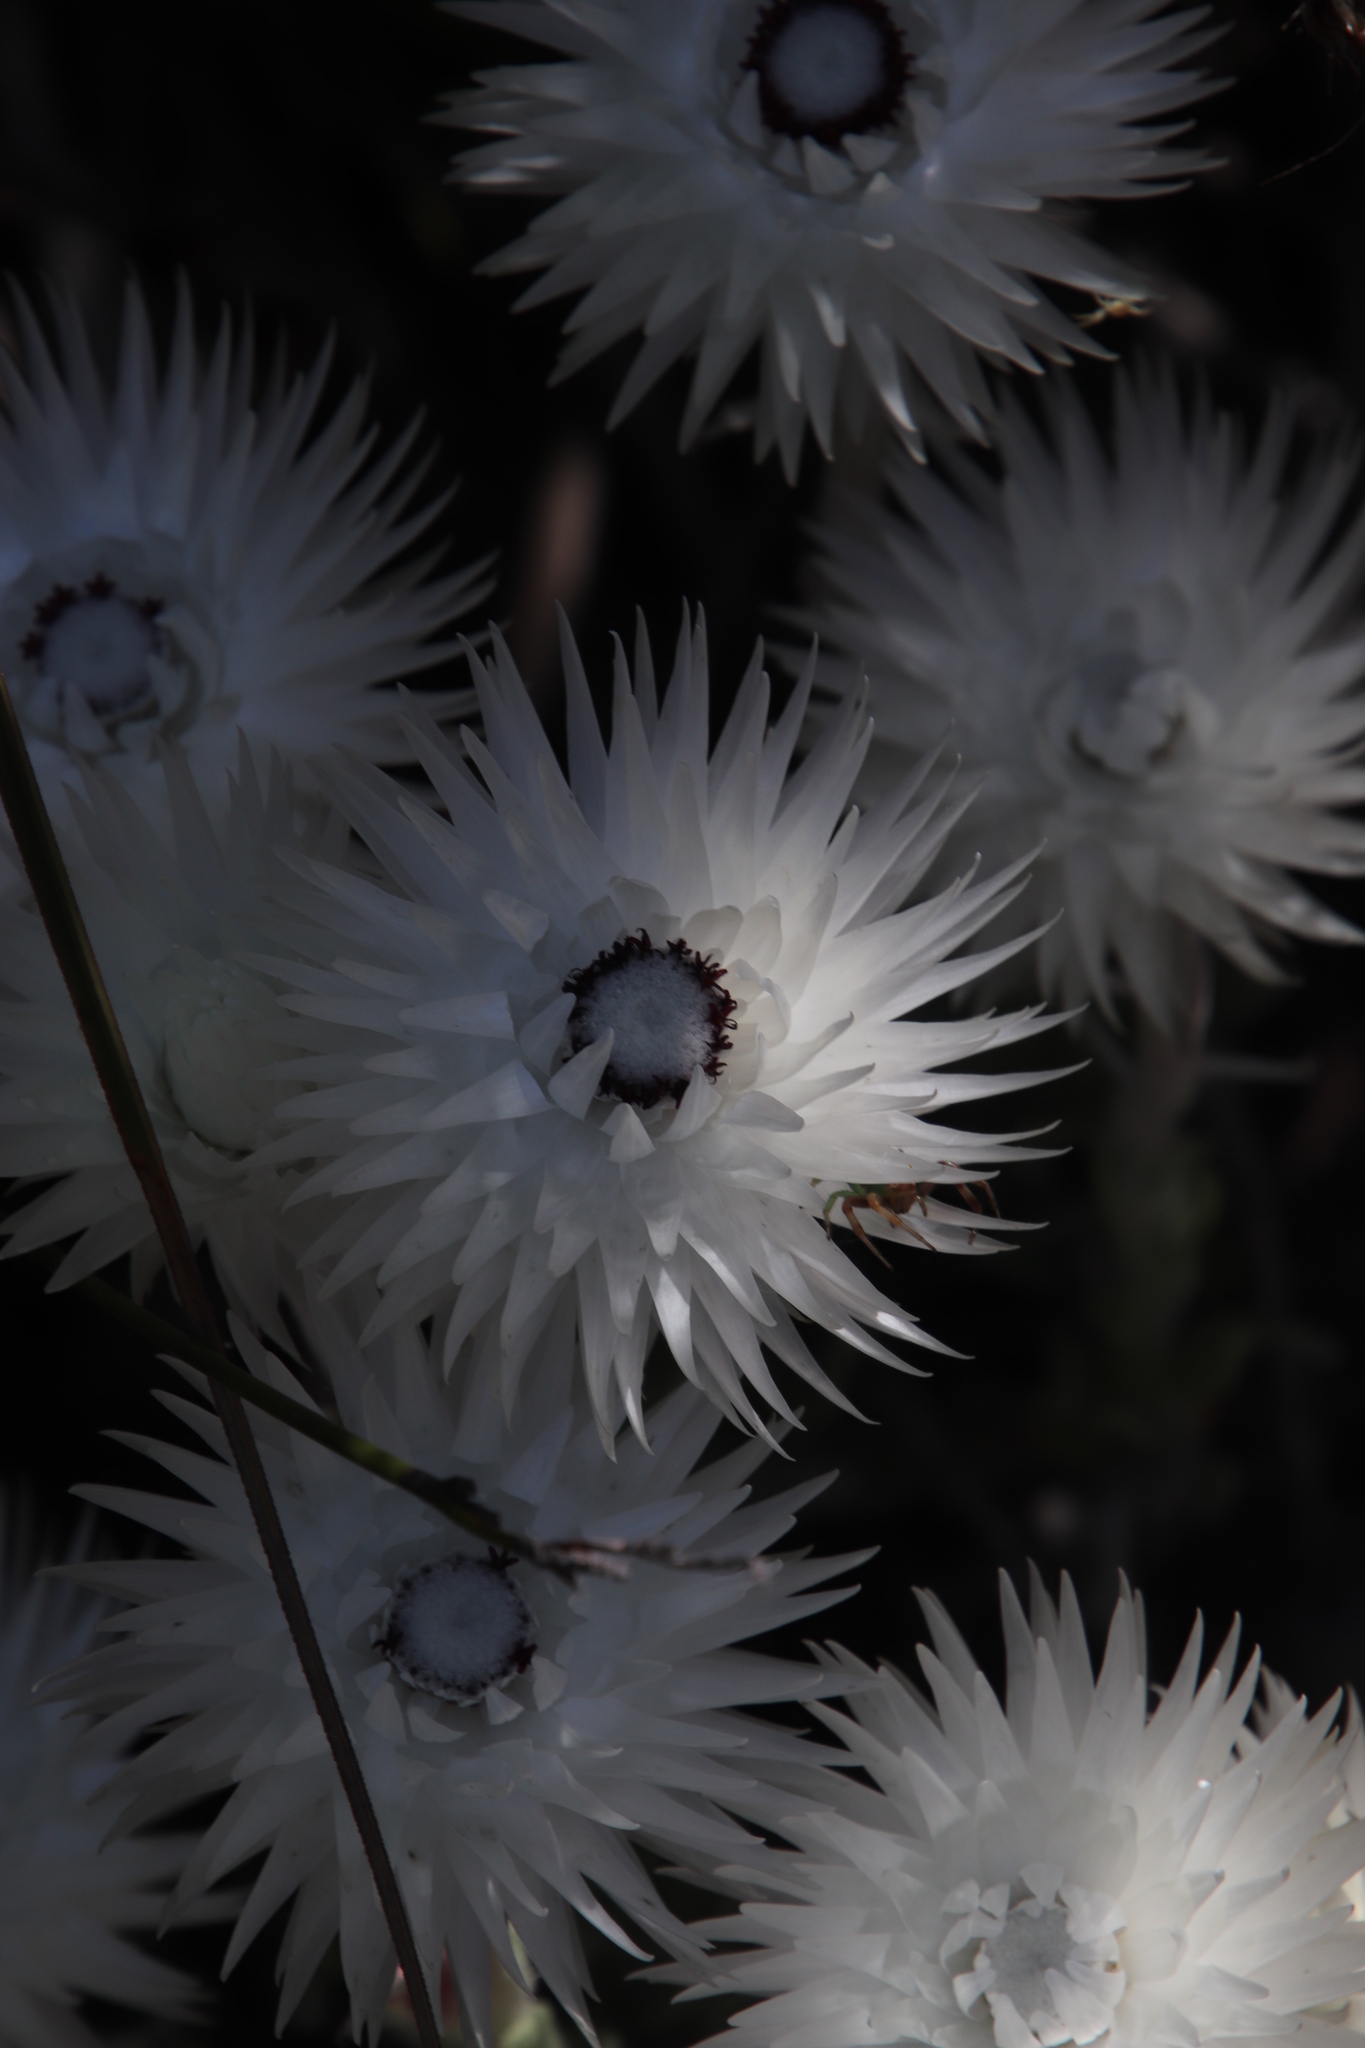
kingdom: Plantae
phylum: Tracheophyta
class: Magnoliopsida
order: Asterales
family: Asteraceae
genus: Syncarpha
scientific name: Syncarpha vestita
